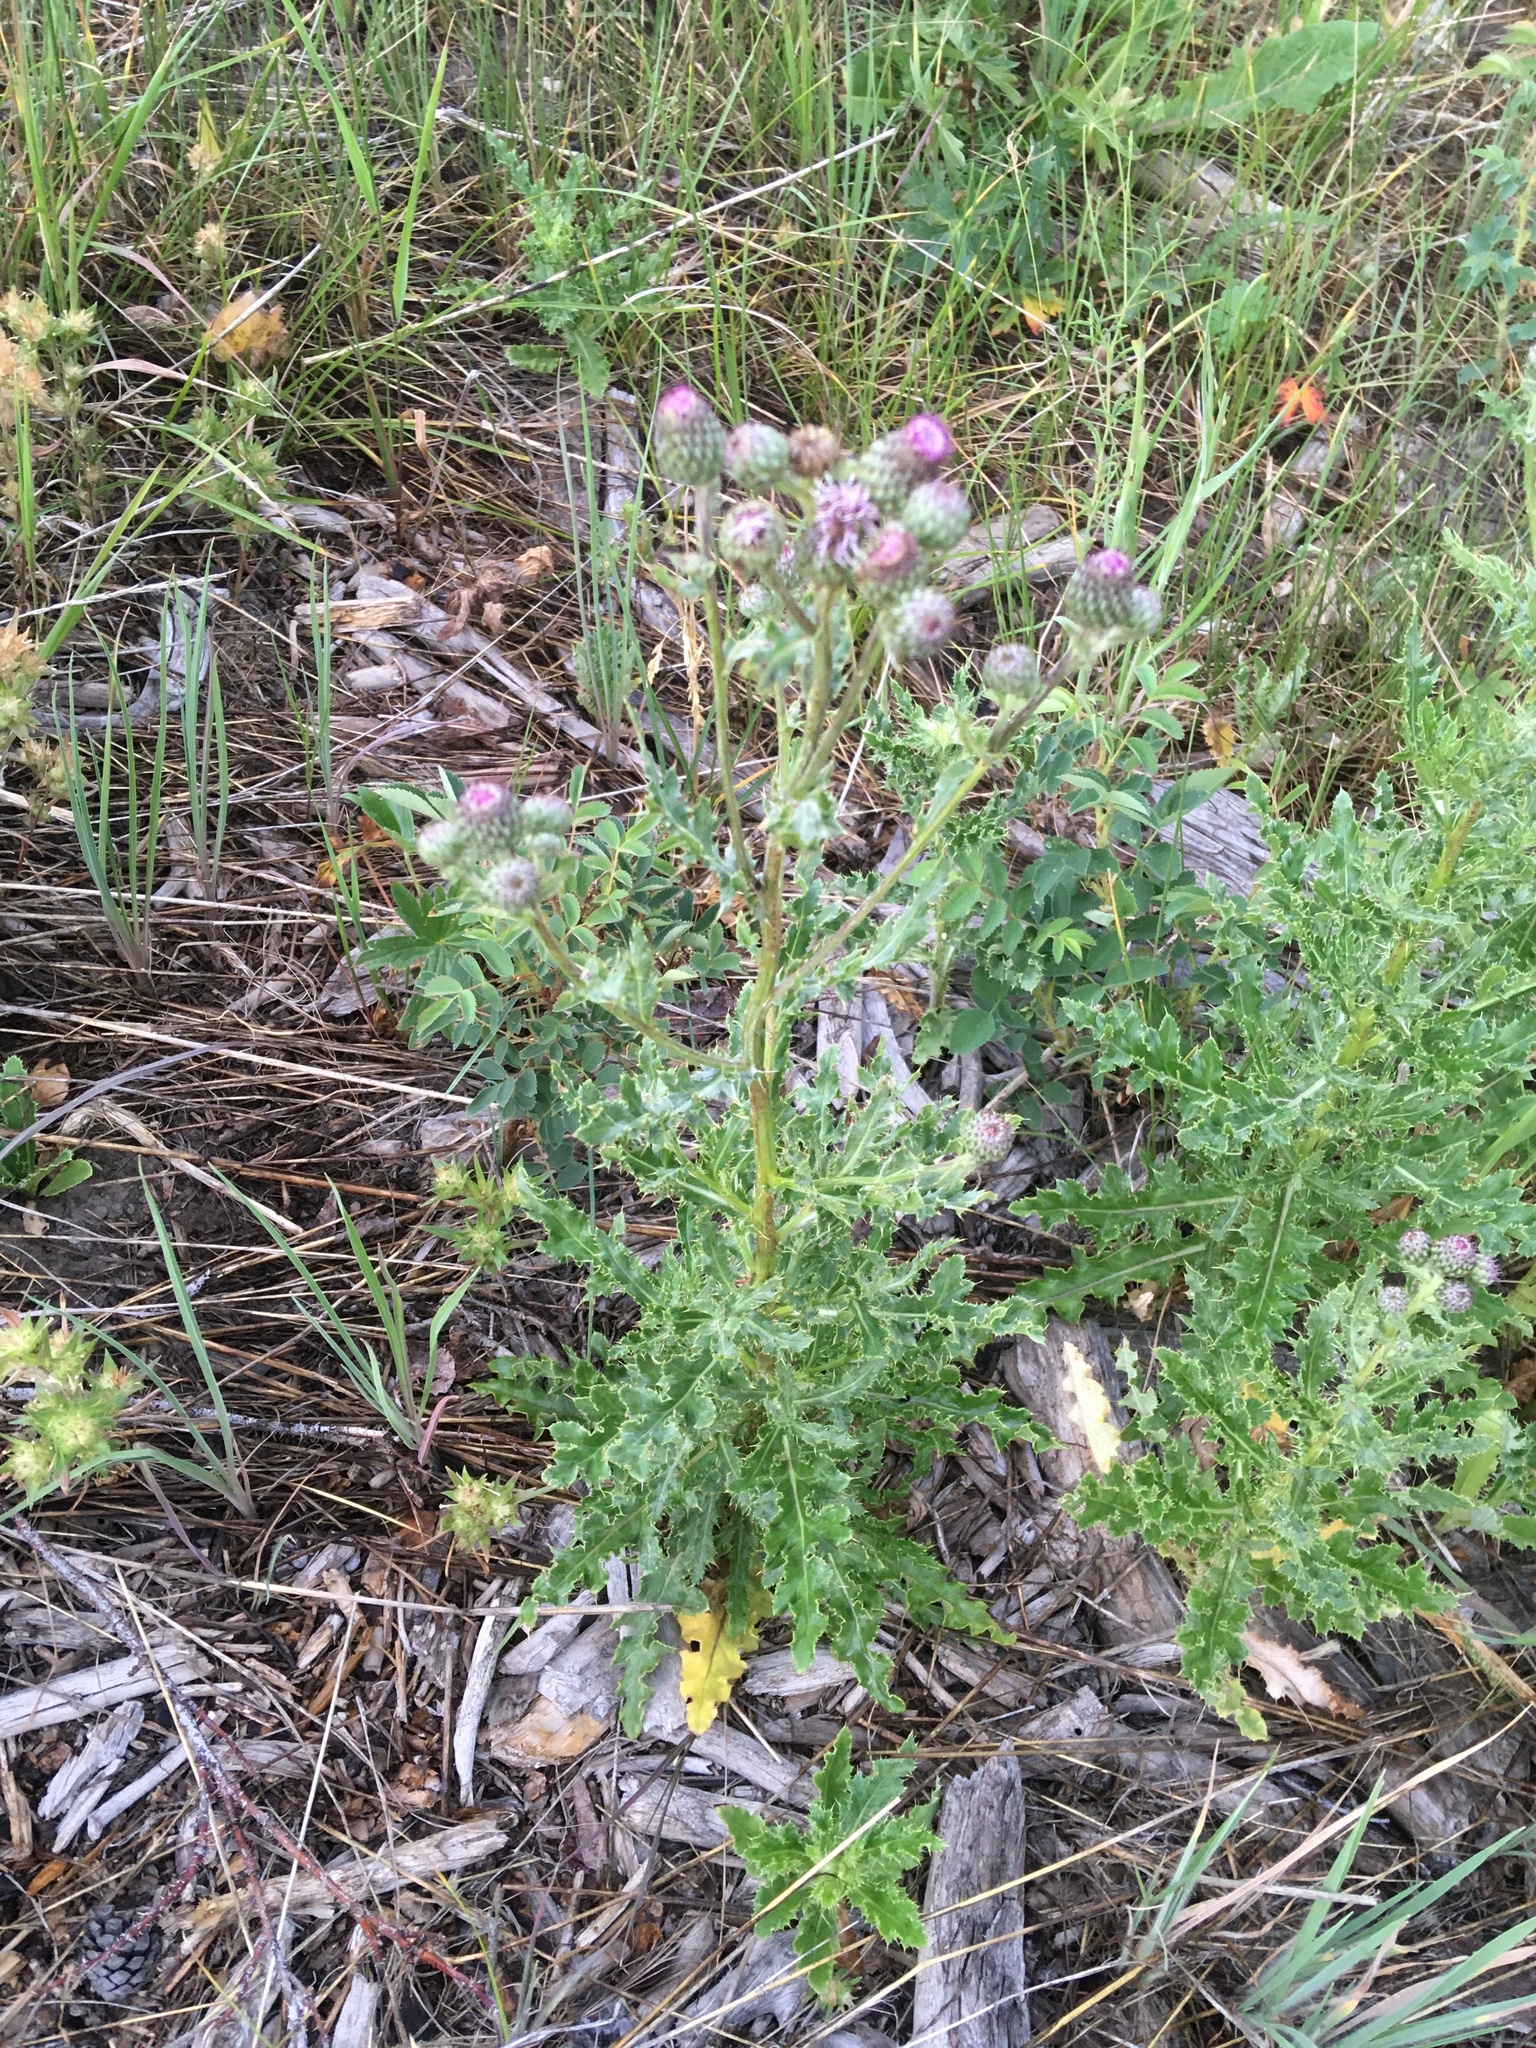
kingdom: Plantae
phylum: Tracheophyta
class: Magnoliopsida
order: Asterales
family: Asteraceae
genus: Cirsium
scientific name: Cirsium arvense
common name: Creeping thistle
